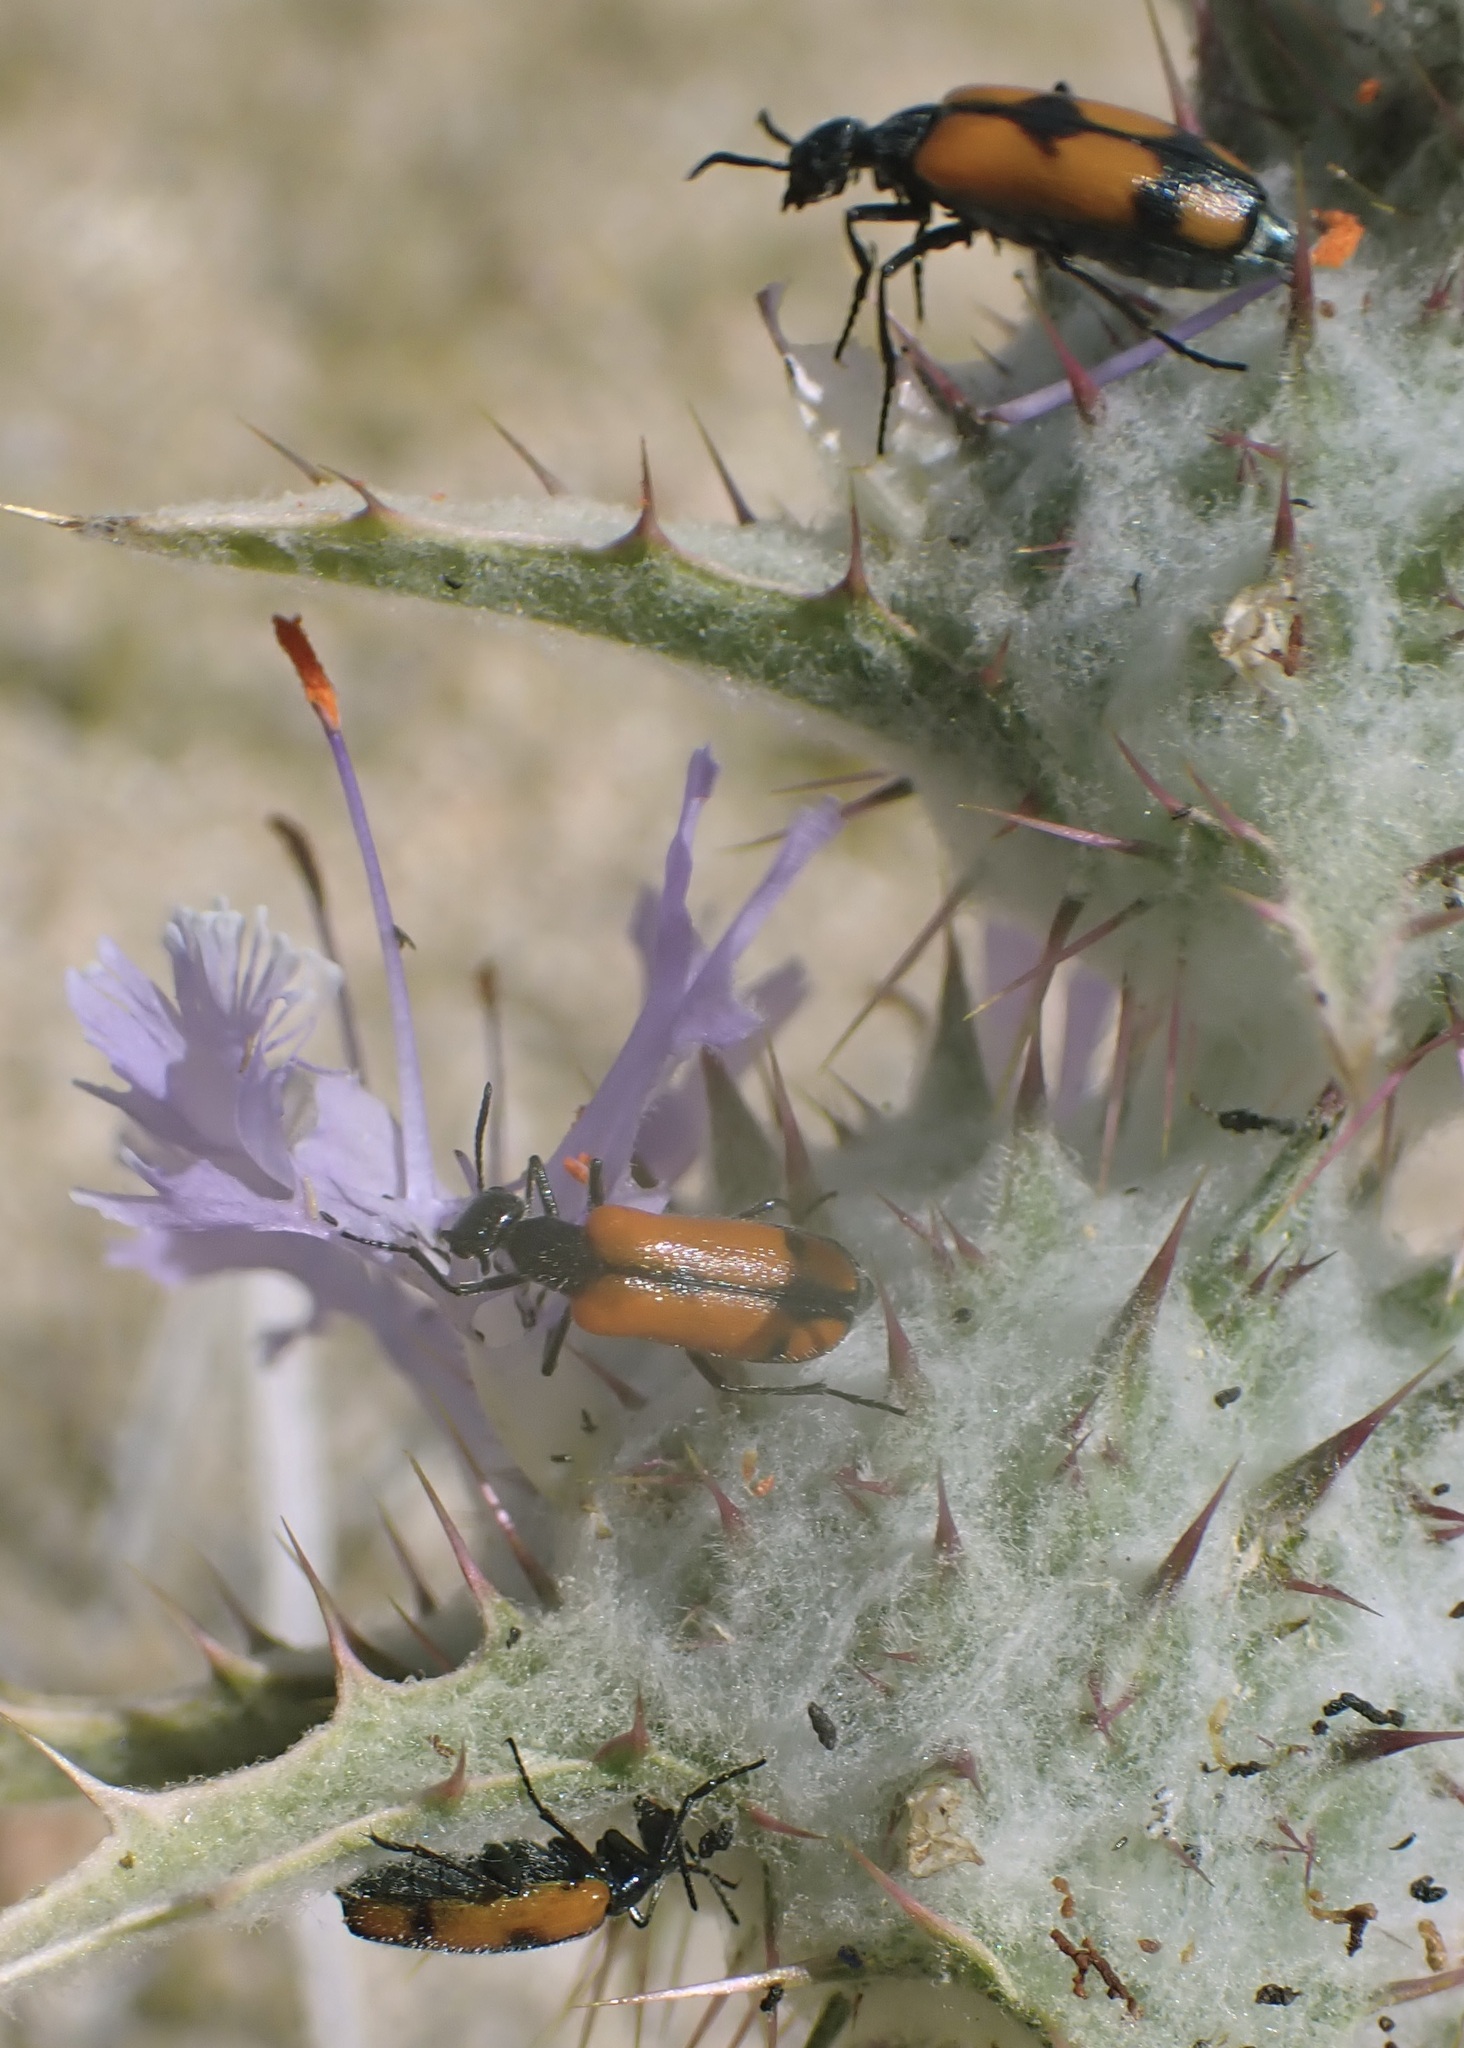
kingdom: Animalia
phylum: Arthropoda
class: Insecta
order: Coleoptera
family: Meloidae
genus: Eupompha
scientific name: Eupompha elegans
